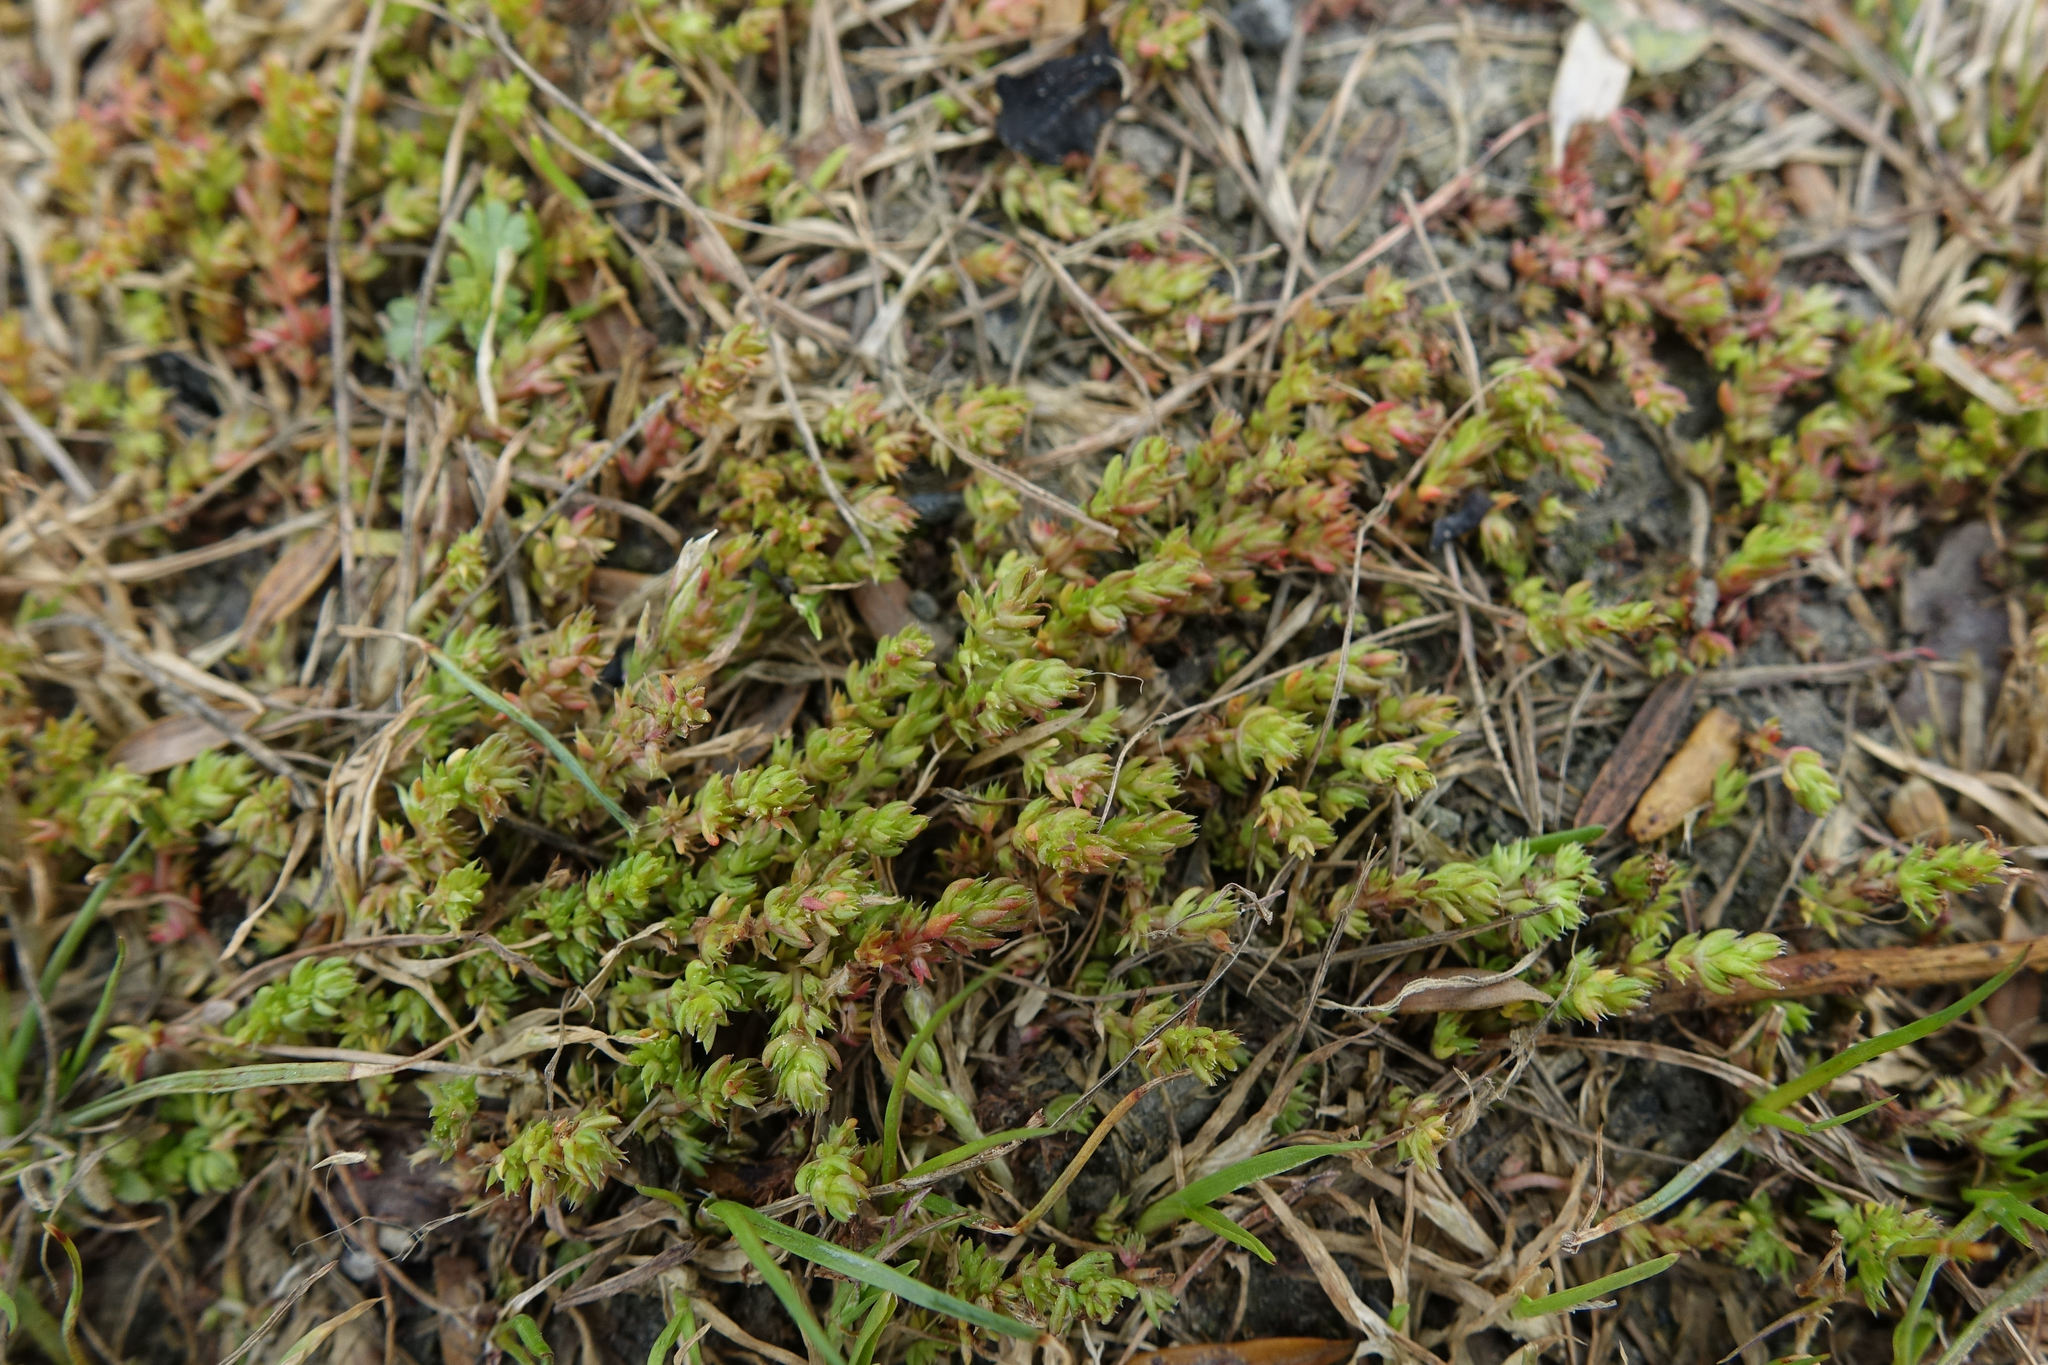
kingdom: Plantae
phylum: Tracheophyta
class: Magnoliopsida
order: Saxifragales
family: Crassulaceae
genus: Crassula
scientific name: Crassula alata
